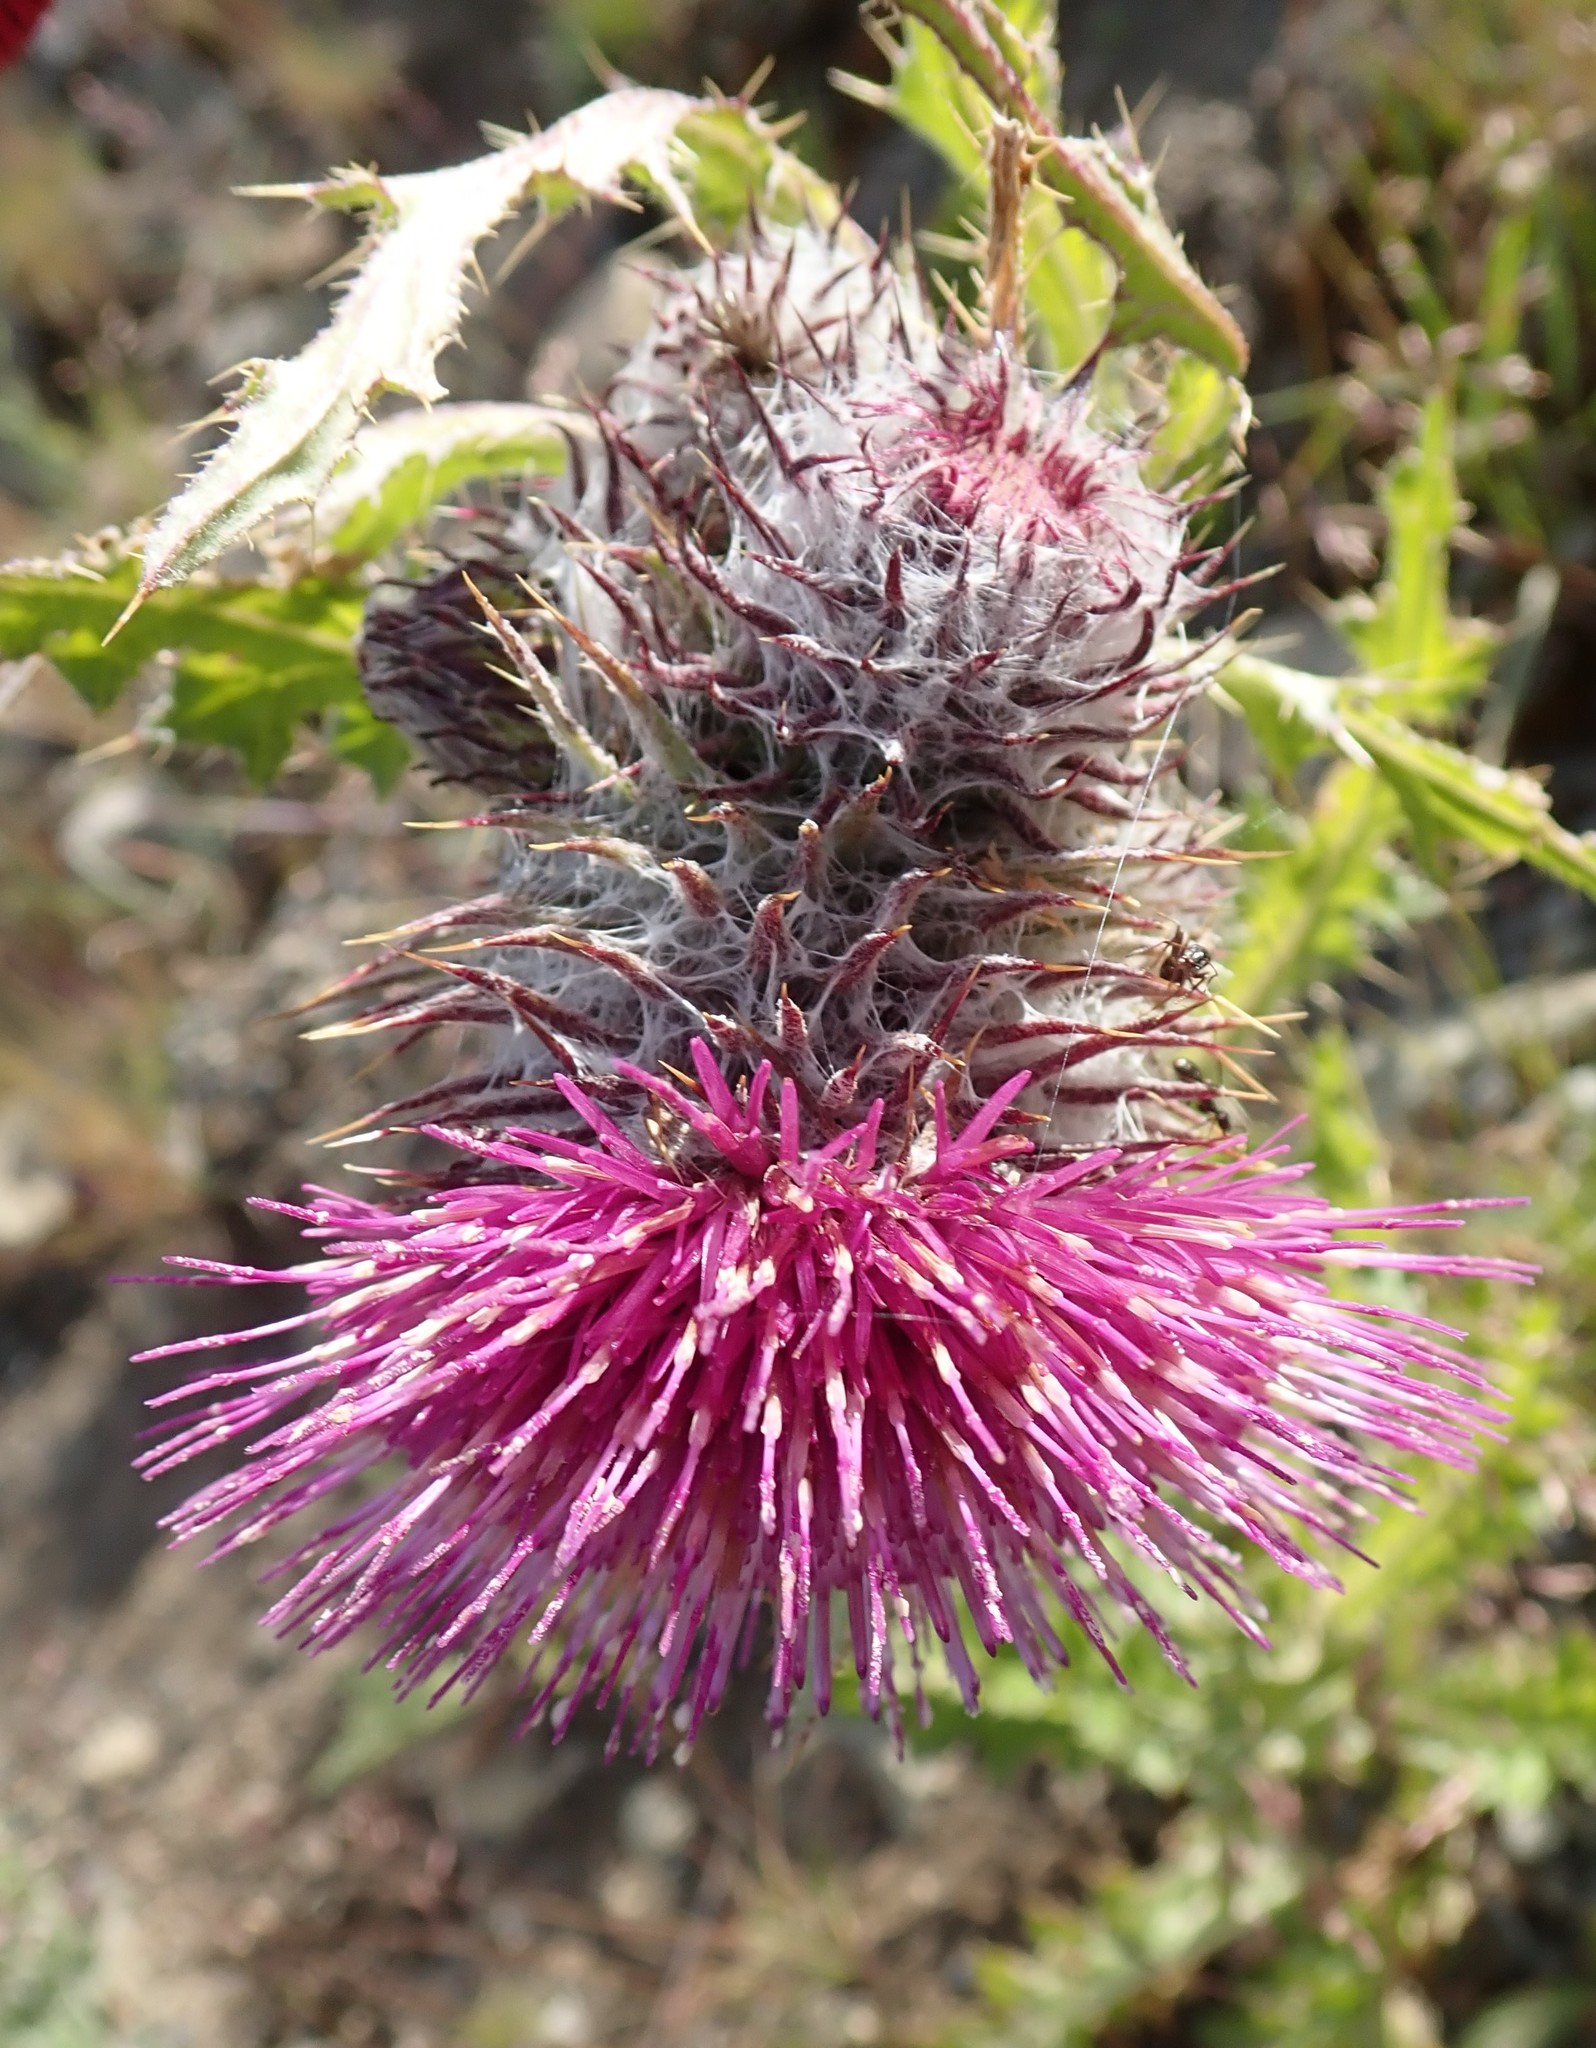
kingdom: Plantae
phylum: Tracheophyta
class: Magnoliopsida
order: Asterales
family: Asteraceae
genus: Cirsium
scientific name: Cirsium edule
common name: Indian thistle
